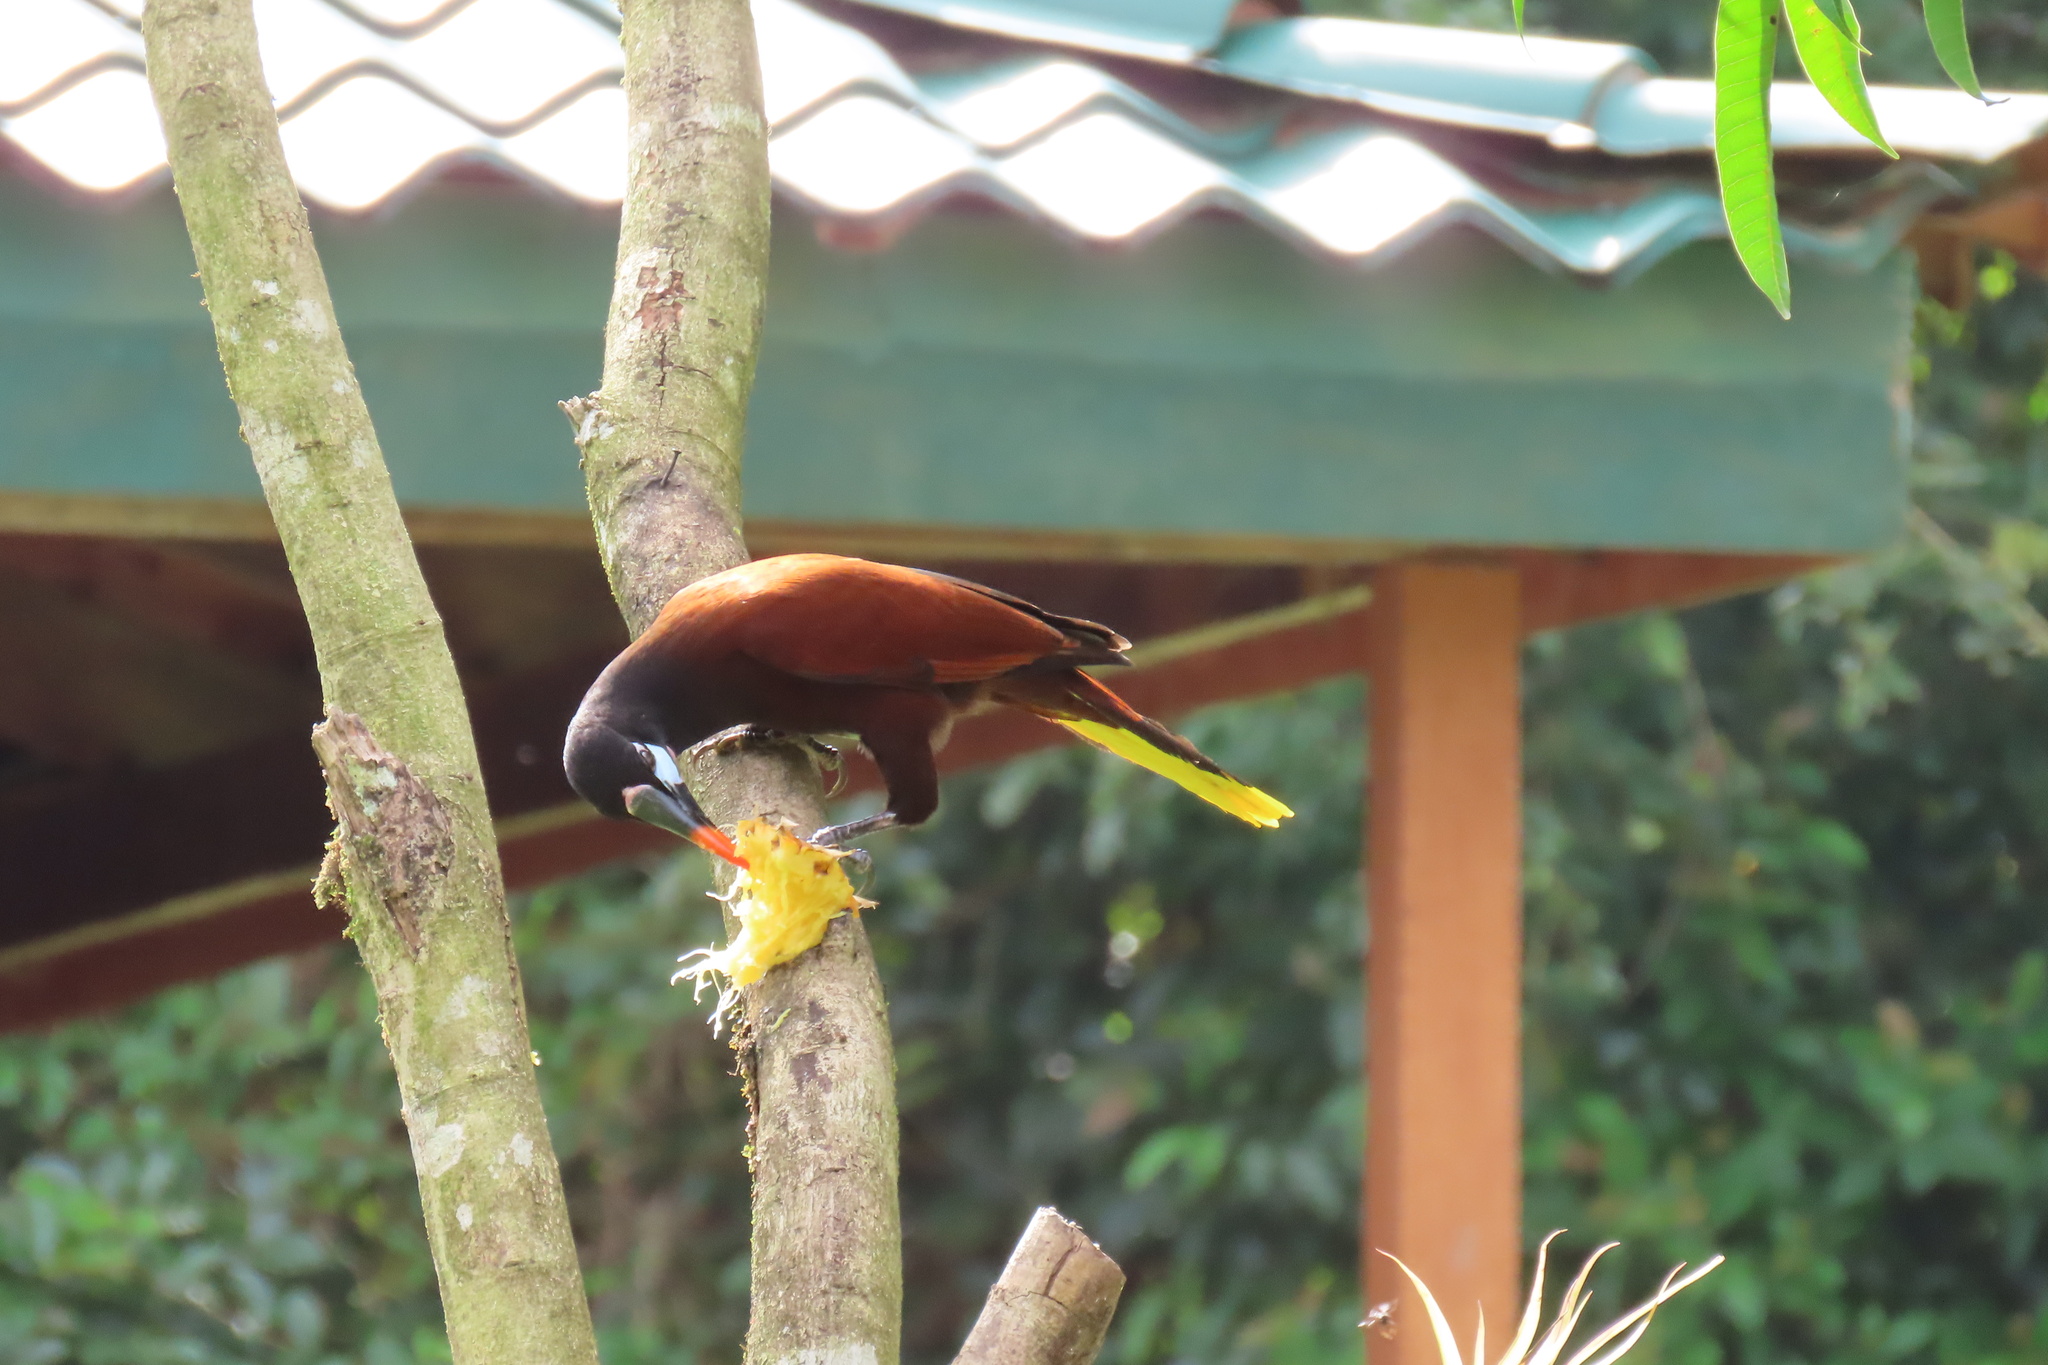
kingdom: Animalia
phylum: Chordata
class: Aves
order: Passeriformes
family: Icteridae
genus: Psarocolius
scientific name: Psarocolius montezuma
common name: Montezuma oropendola
